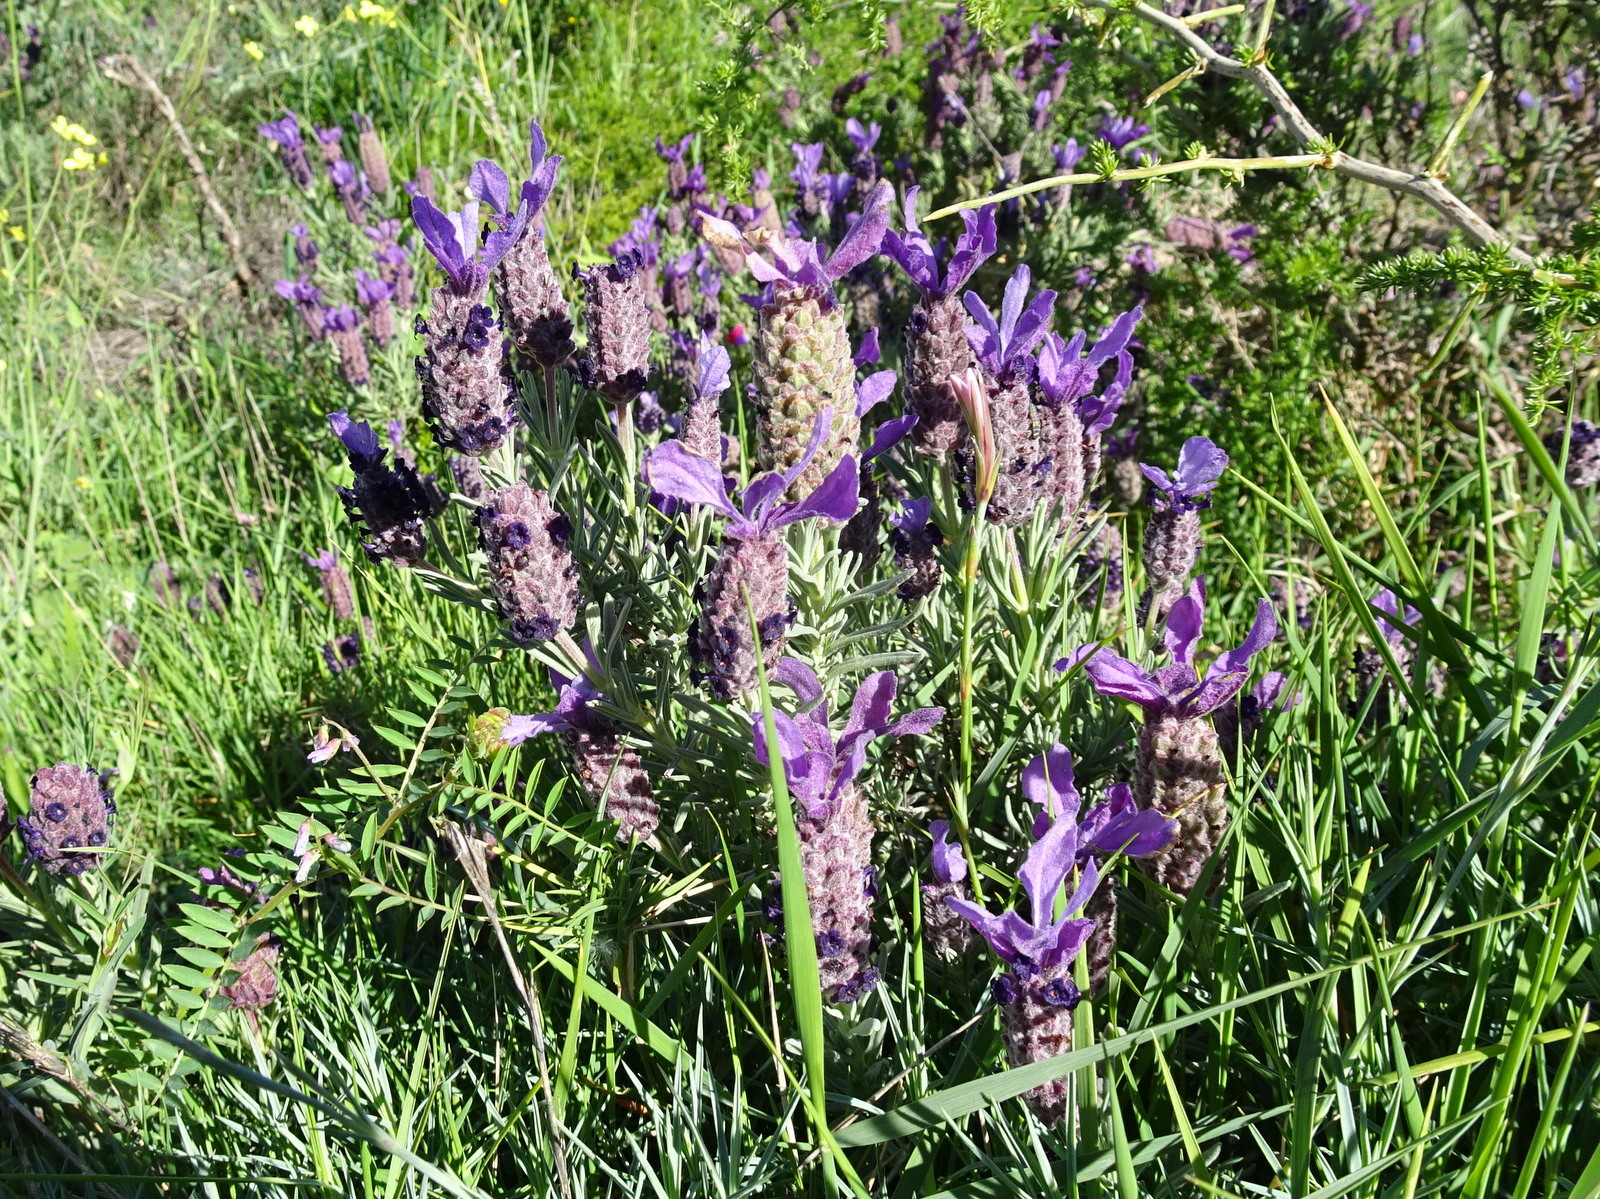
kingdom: Plantae
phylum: Tracheophyta
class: Magnoliopsida
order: Lamiales
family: Lamiaceae
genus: Lavandula
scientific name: Lavandula stoechas
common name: French lavender
